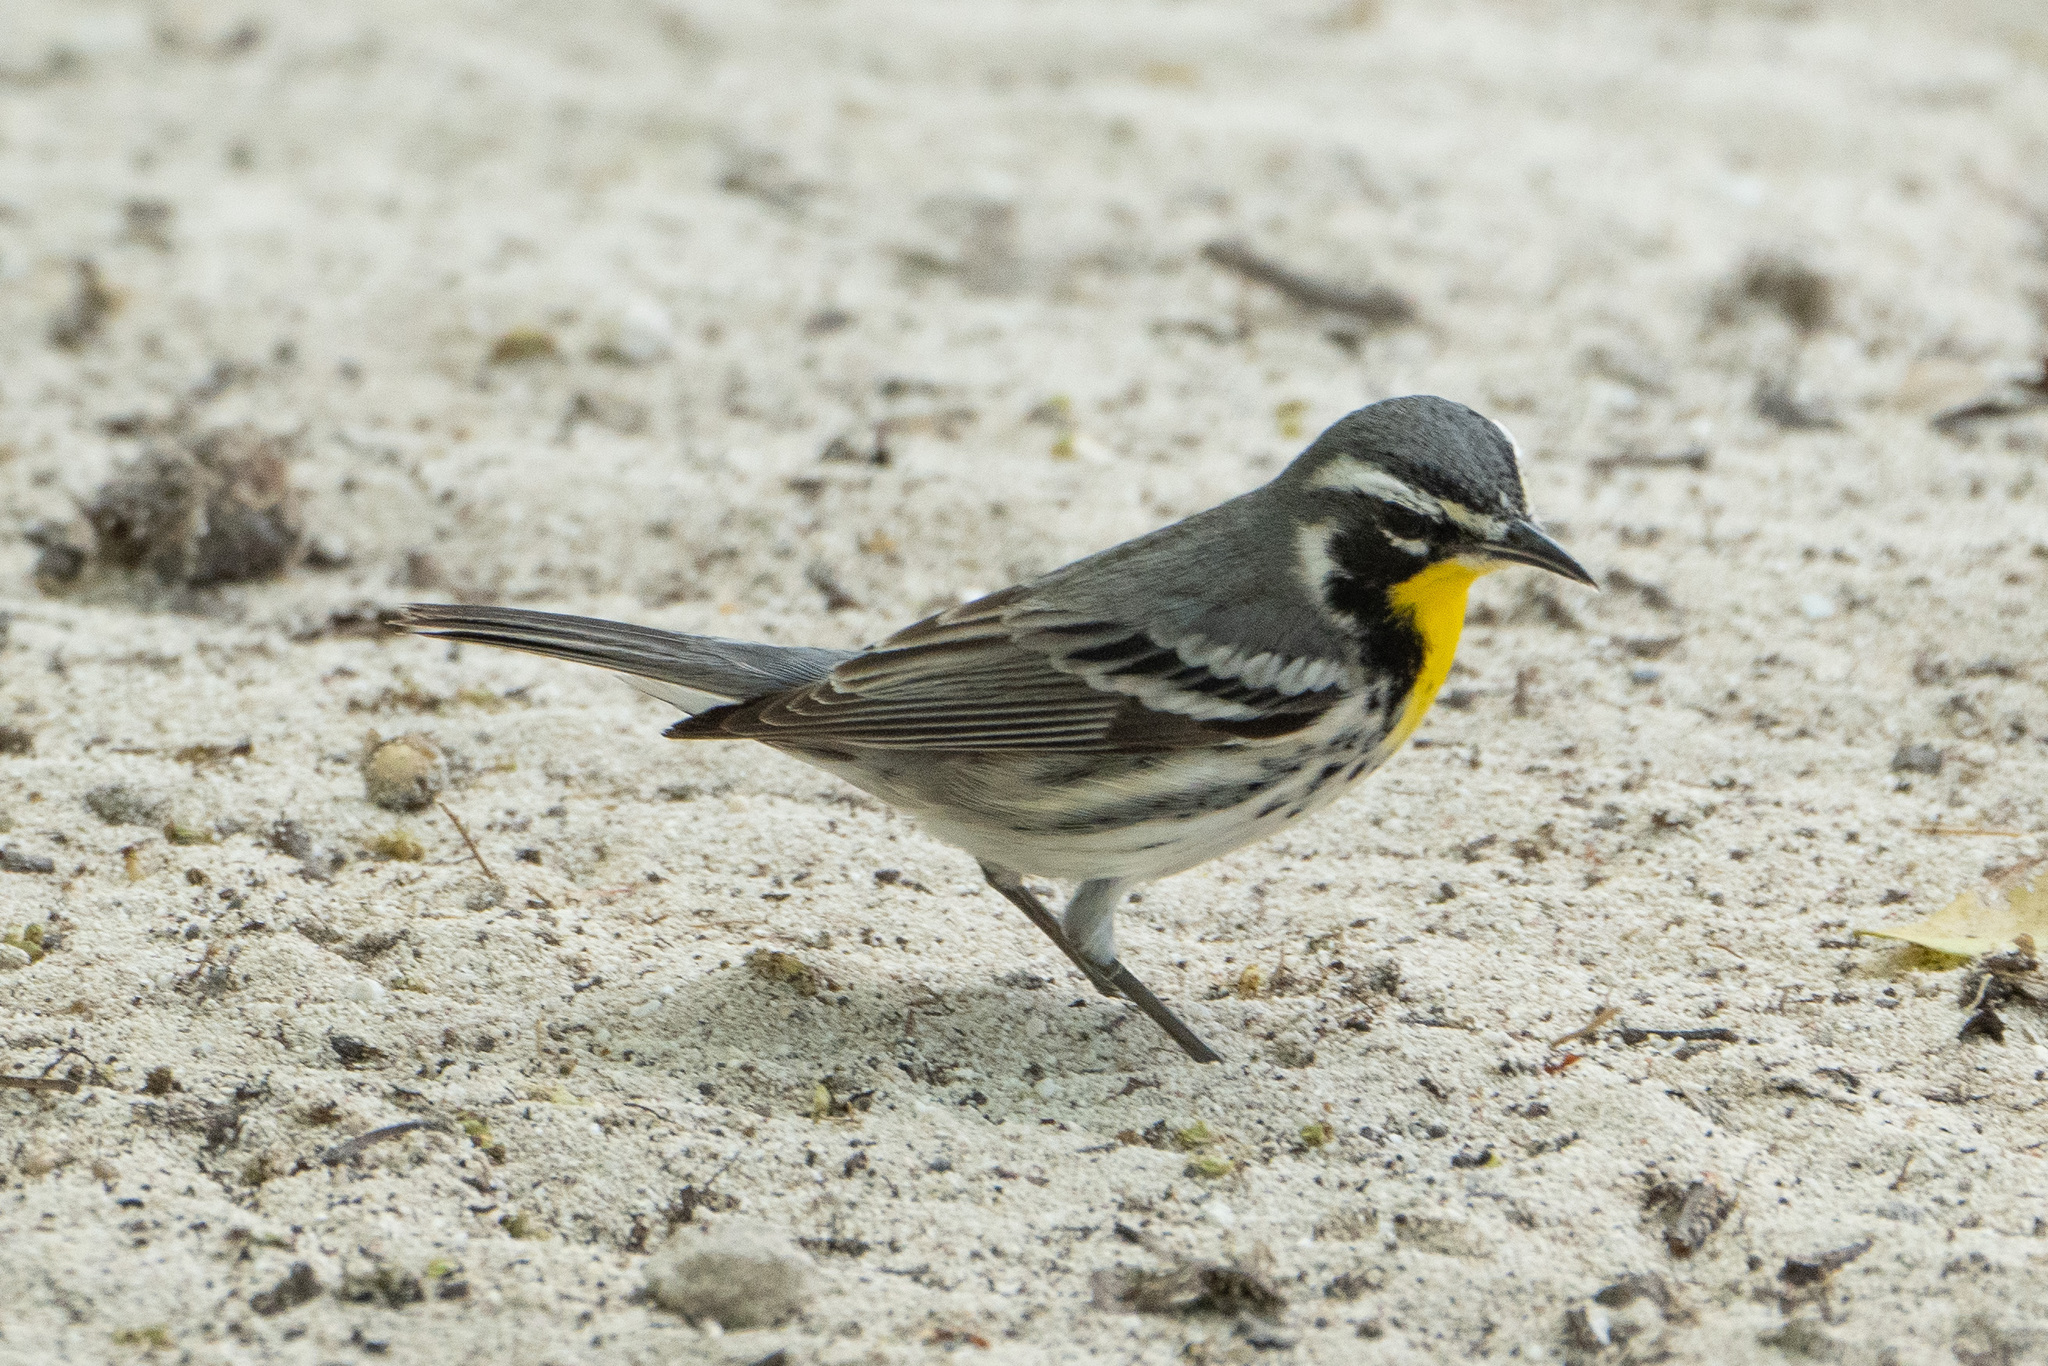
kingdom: Animalia
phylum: Chordata
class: Aves
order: Passeriformes
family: Parulidae
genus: Setophaga
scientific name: Setophaga dominica
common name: Yellow-throated warbler
